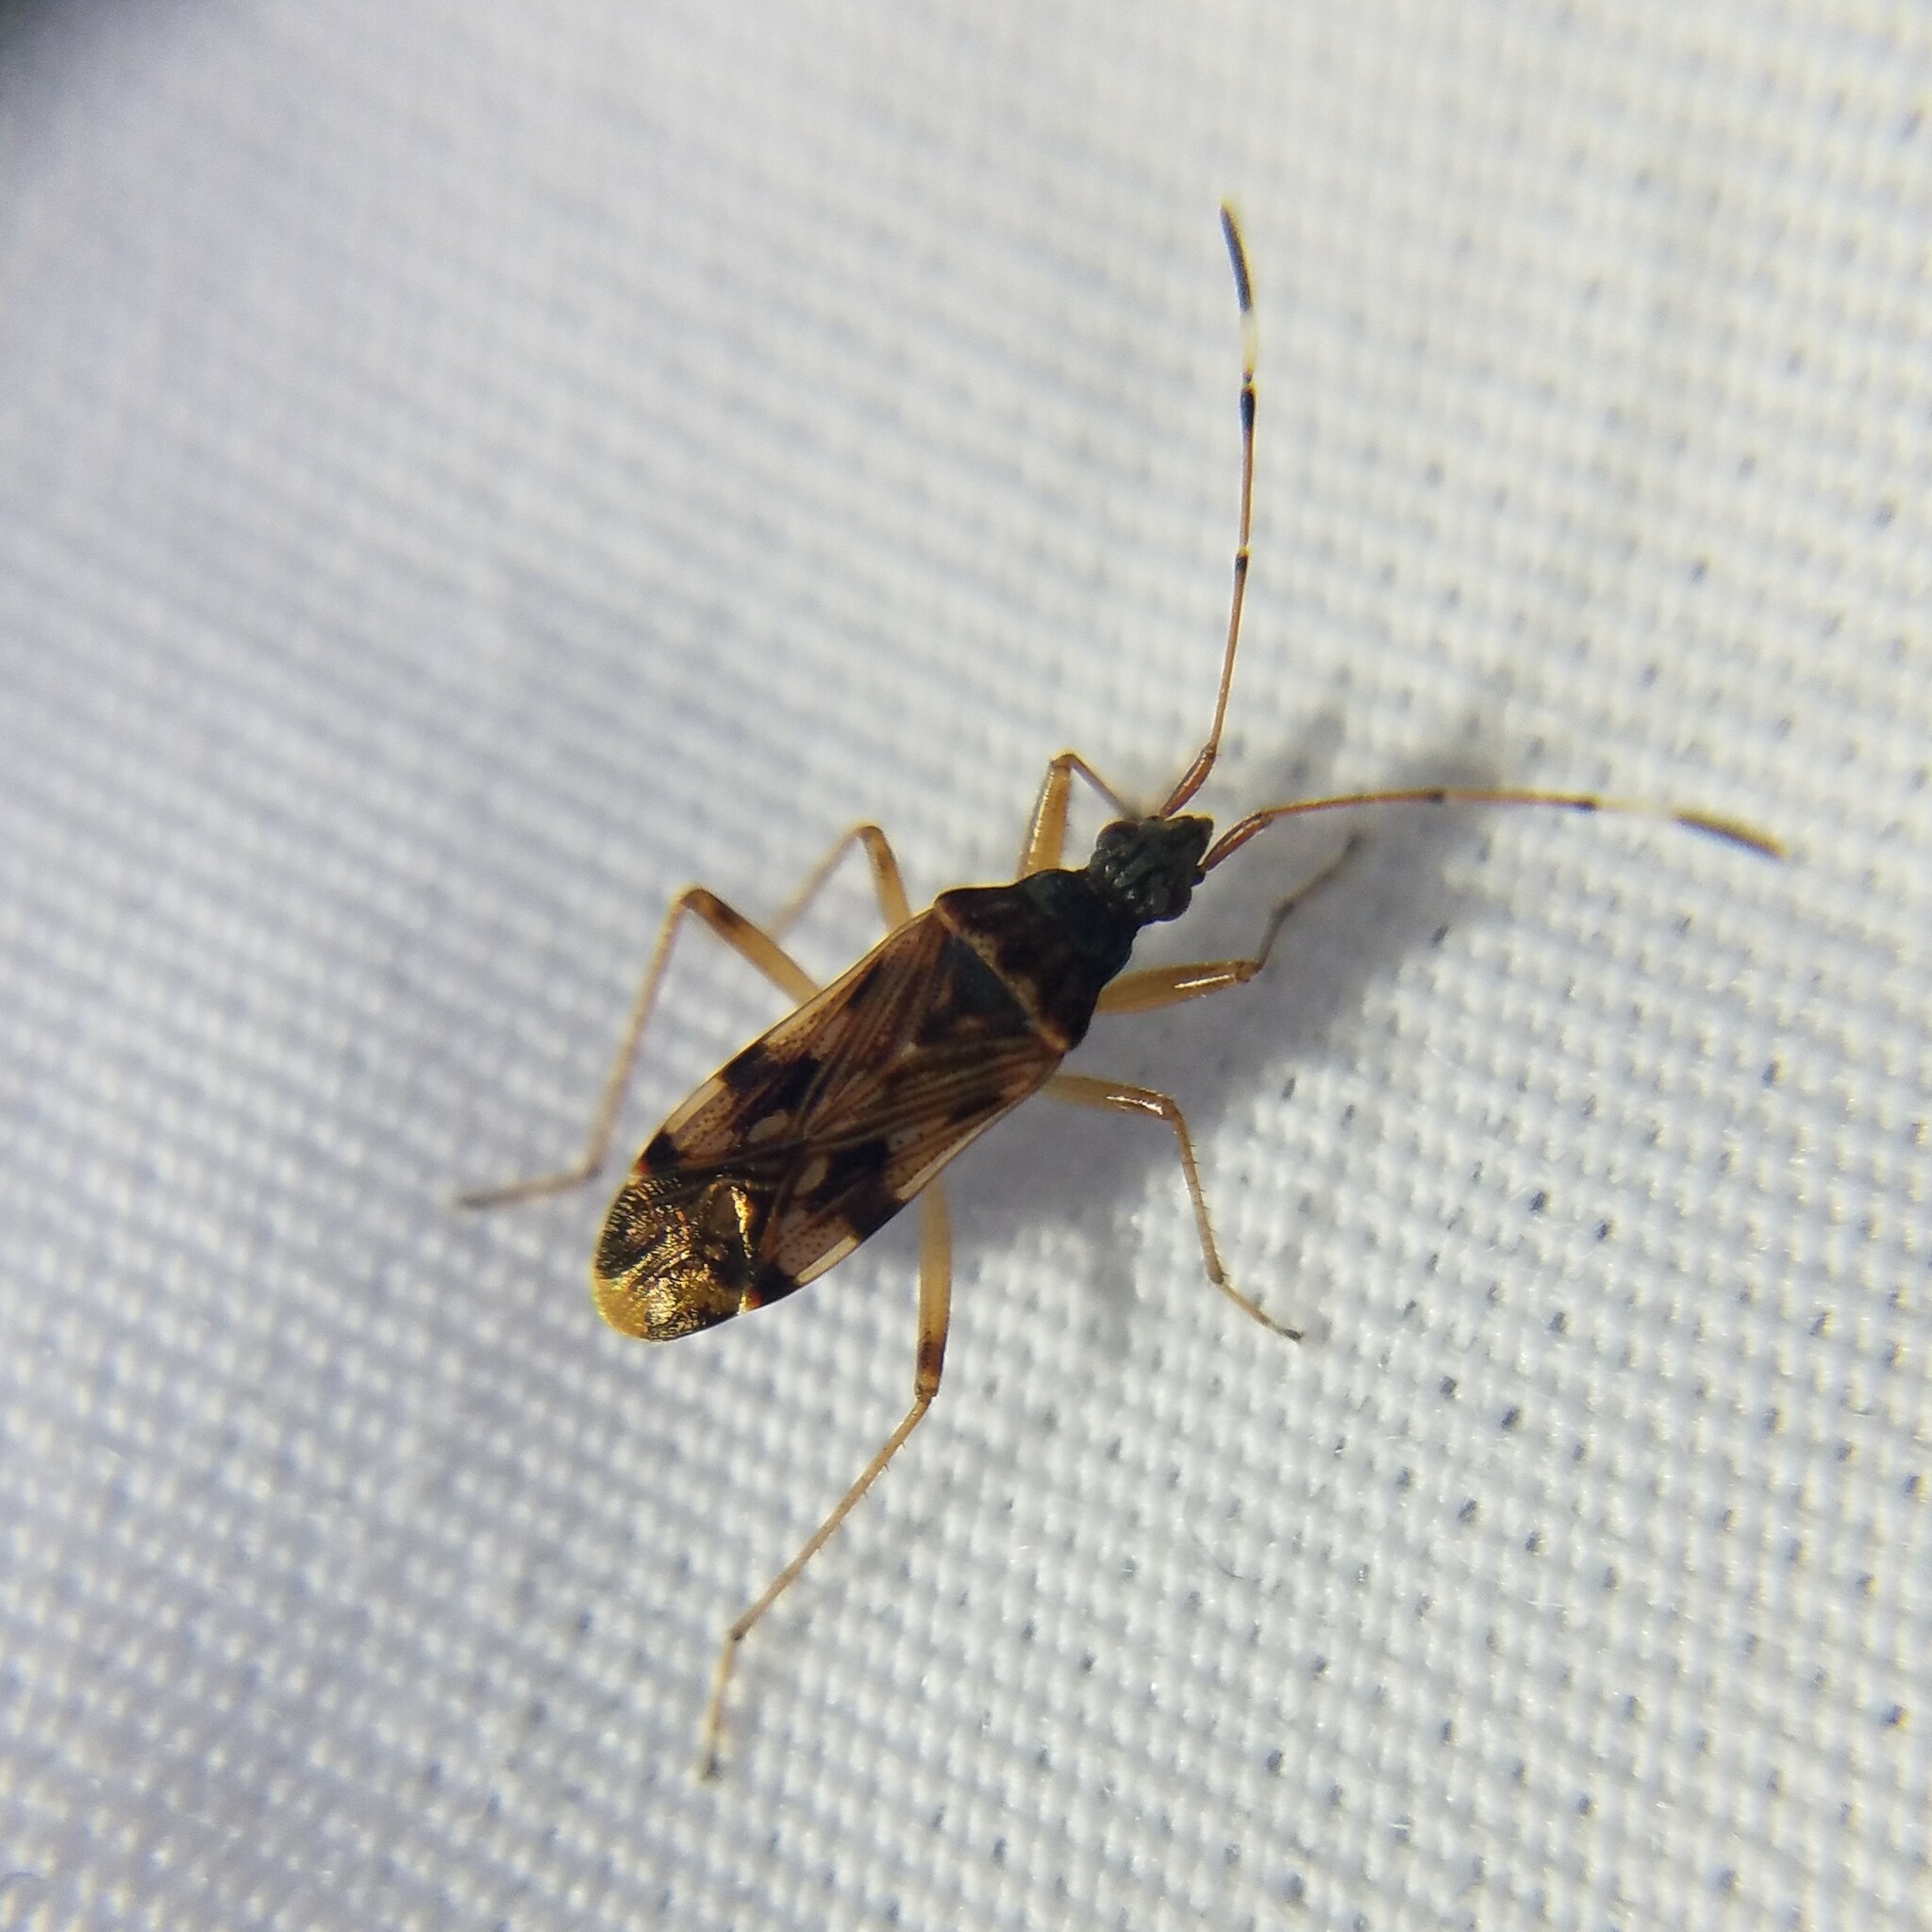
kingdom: Animalia
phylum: Arthropoda
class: Insecta
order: Hemiptera
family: Rhyparochromidae
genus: Ozophora
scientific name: Ozophora picturata
